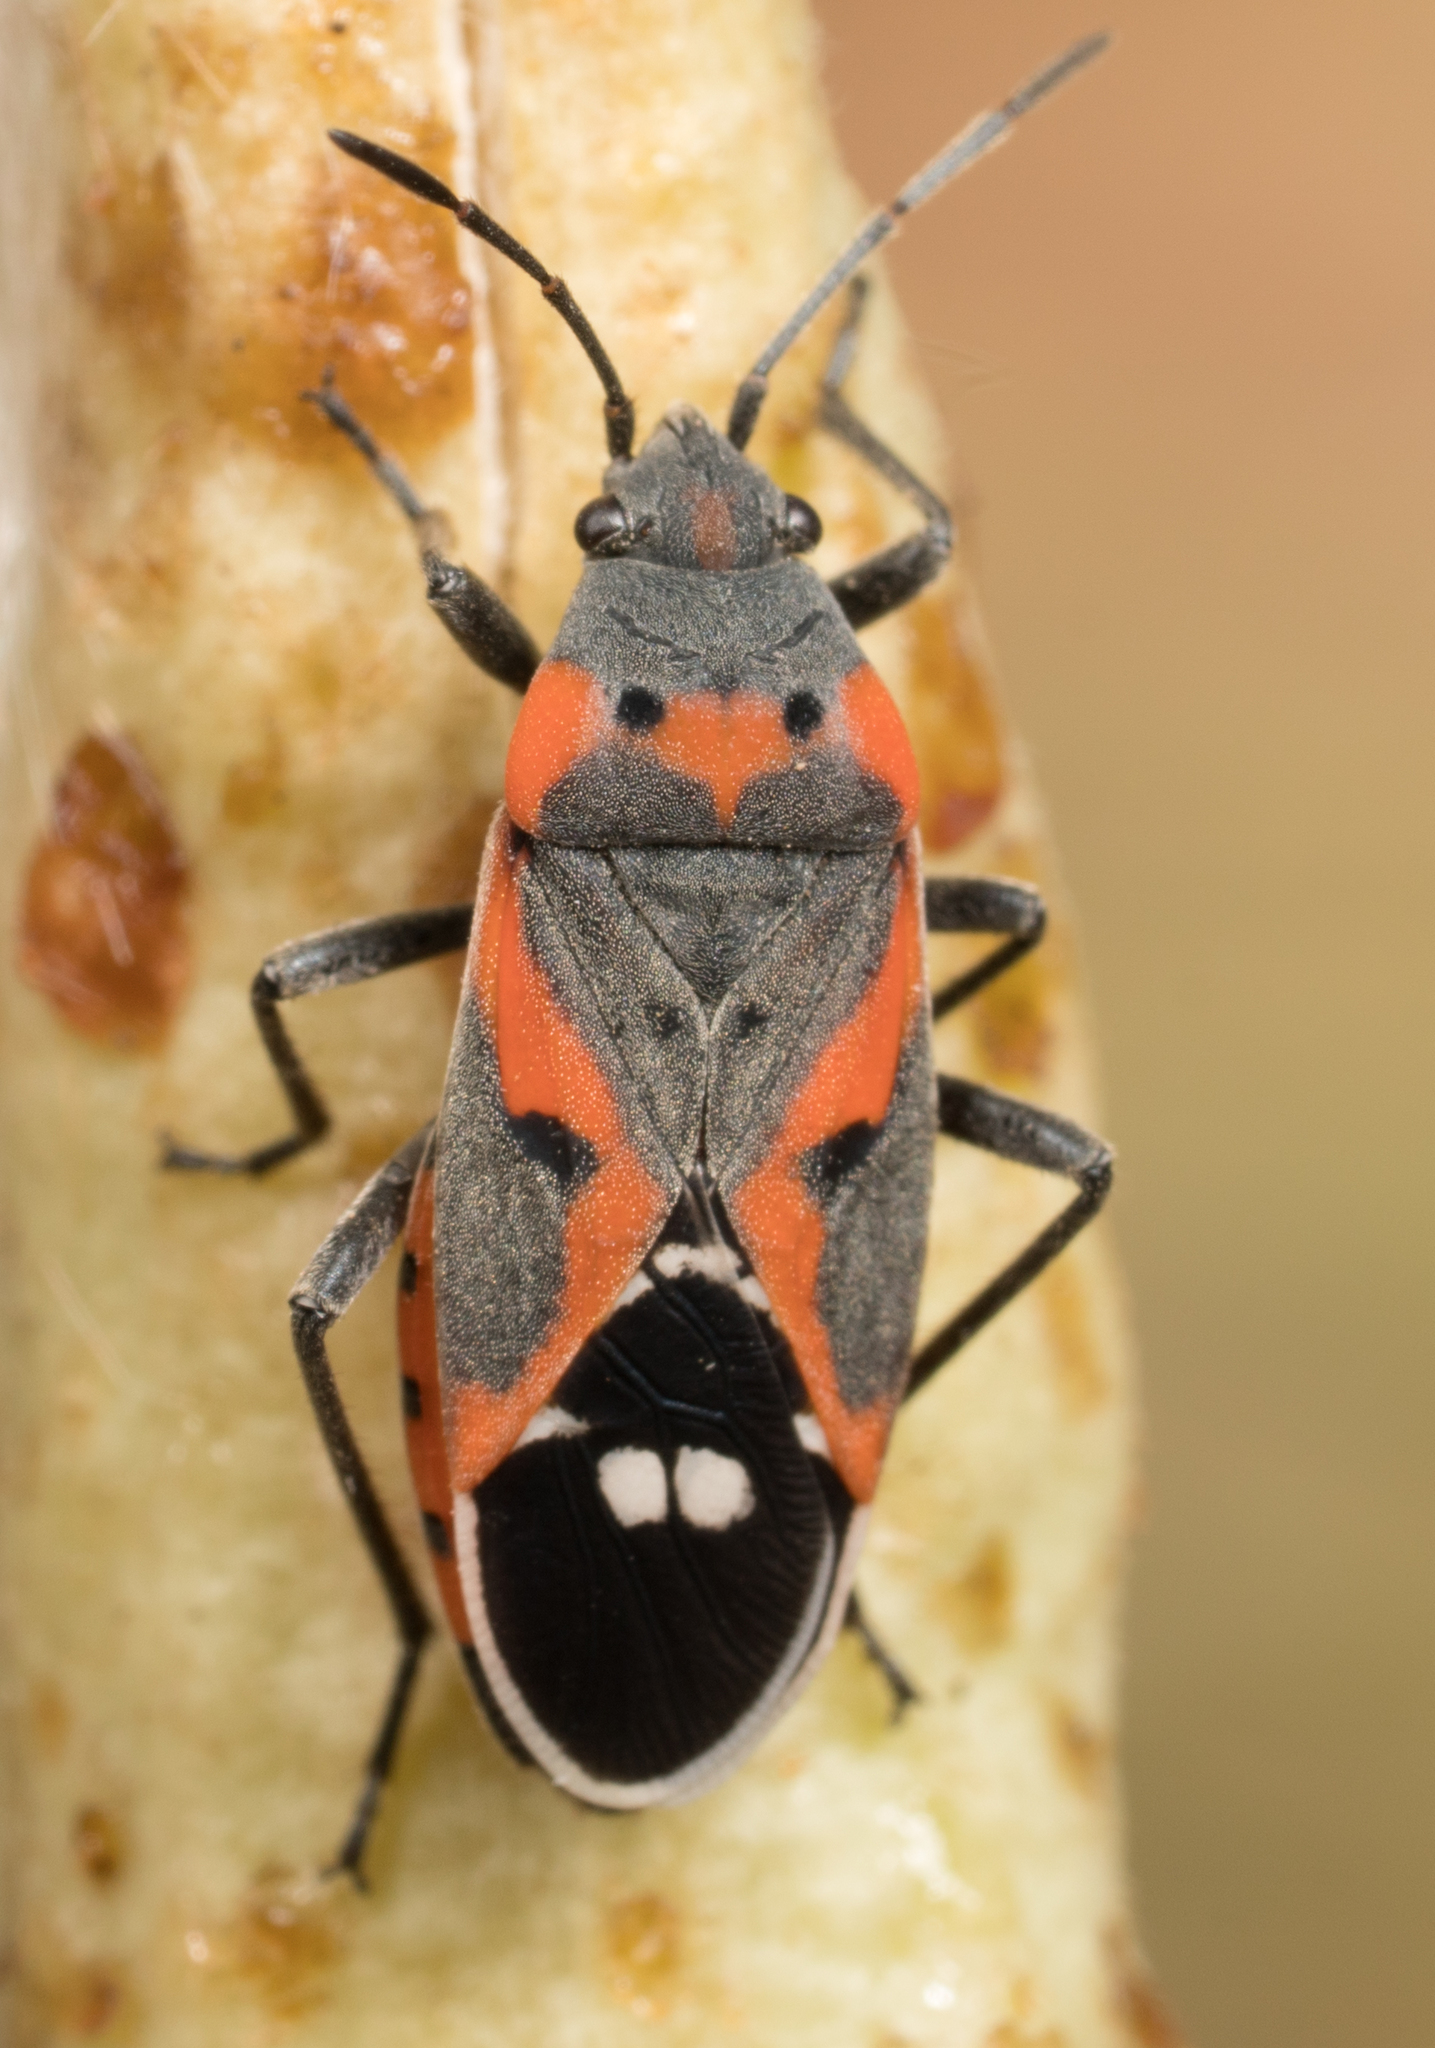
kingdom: Animalia
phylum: Arthropoda
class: Insecta
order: Hemiptera
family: Lygaeidae
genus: Lygaeus
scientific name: Lygaeus kalmii
